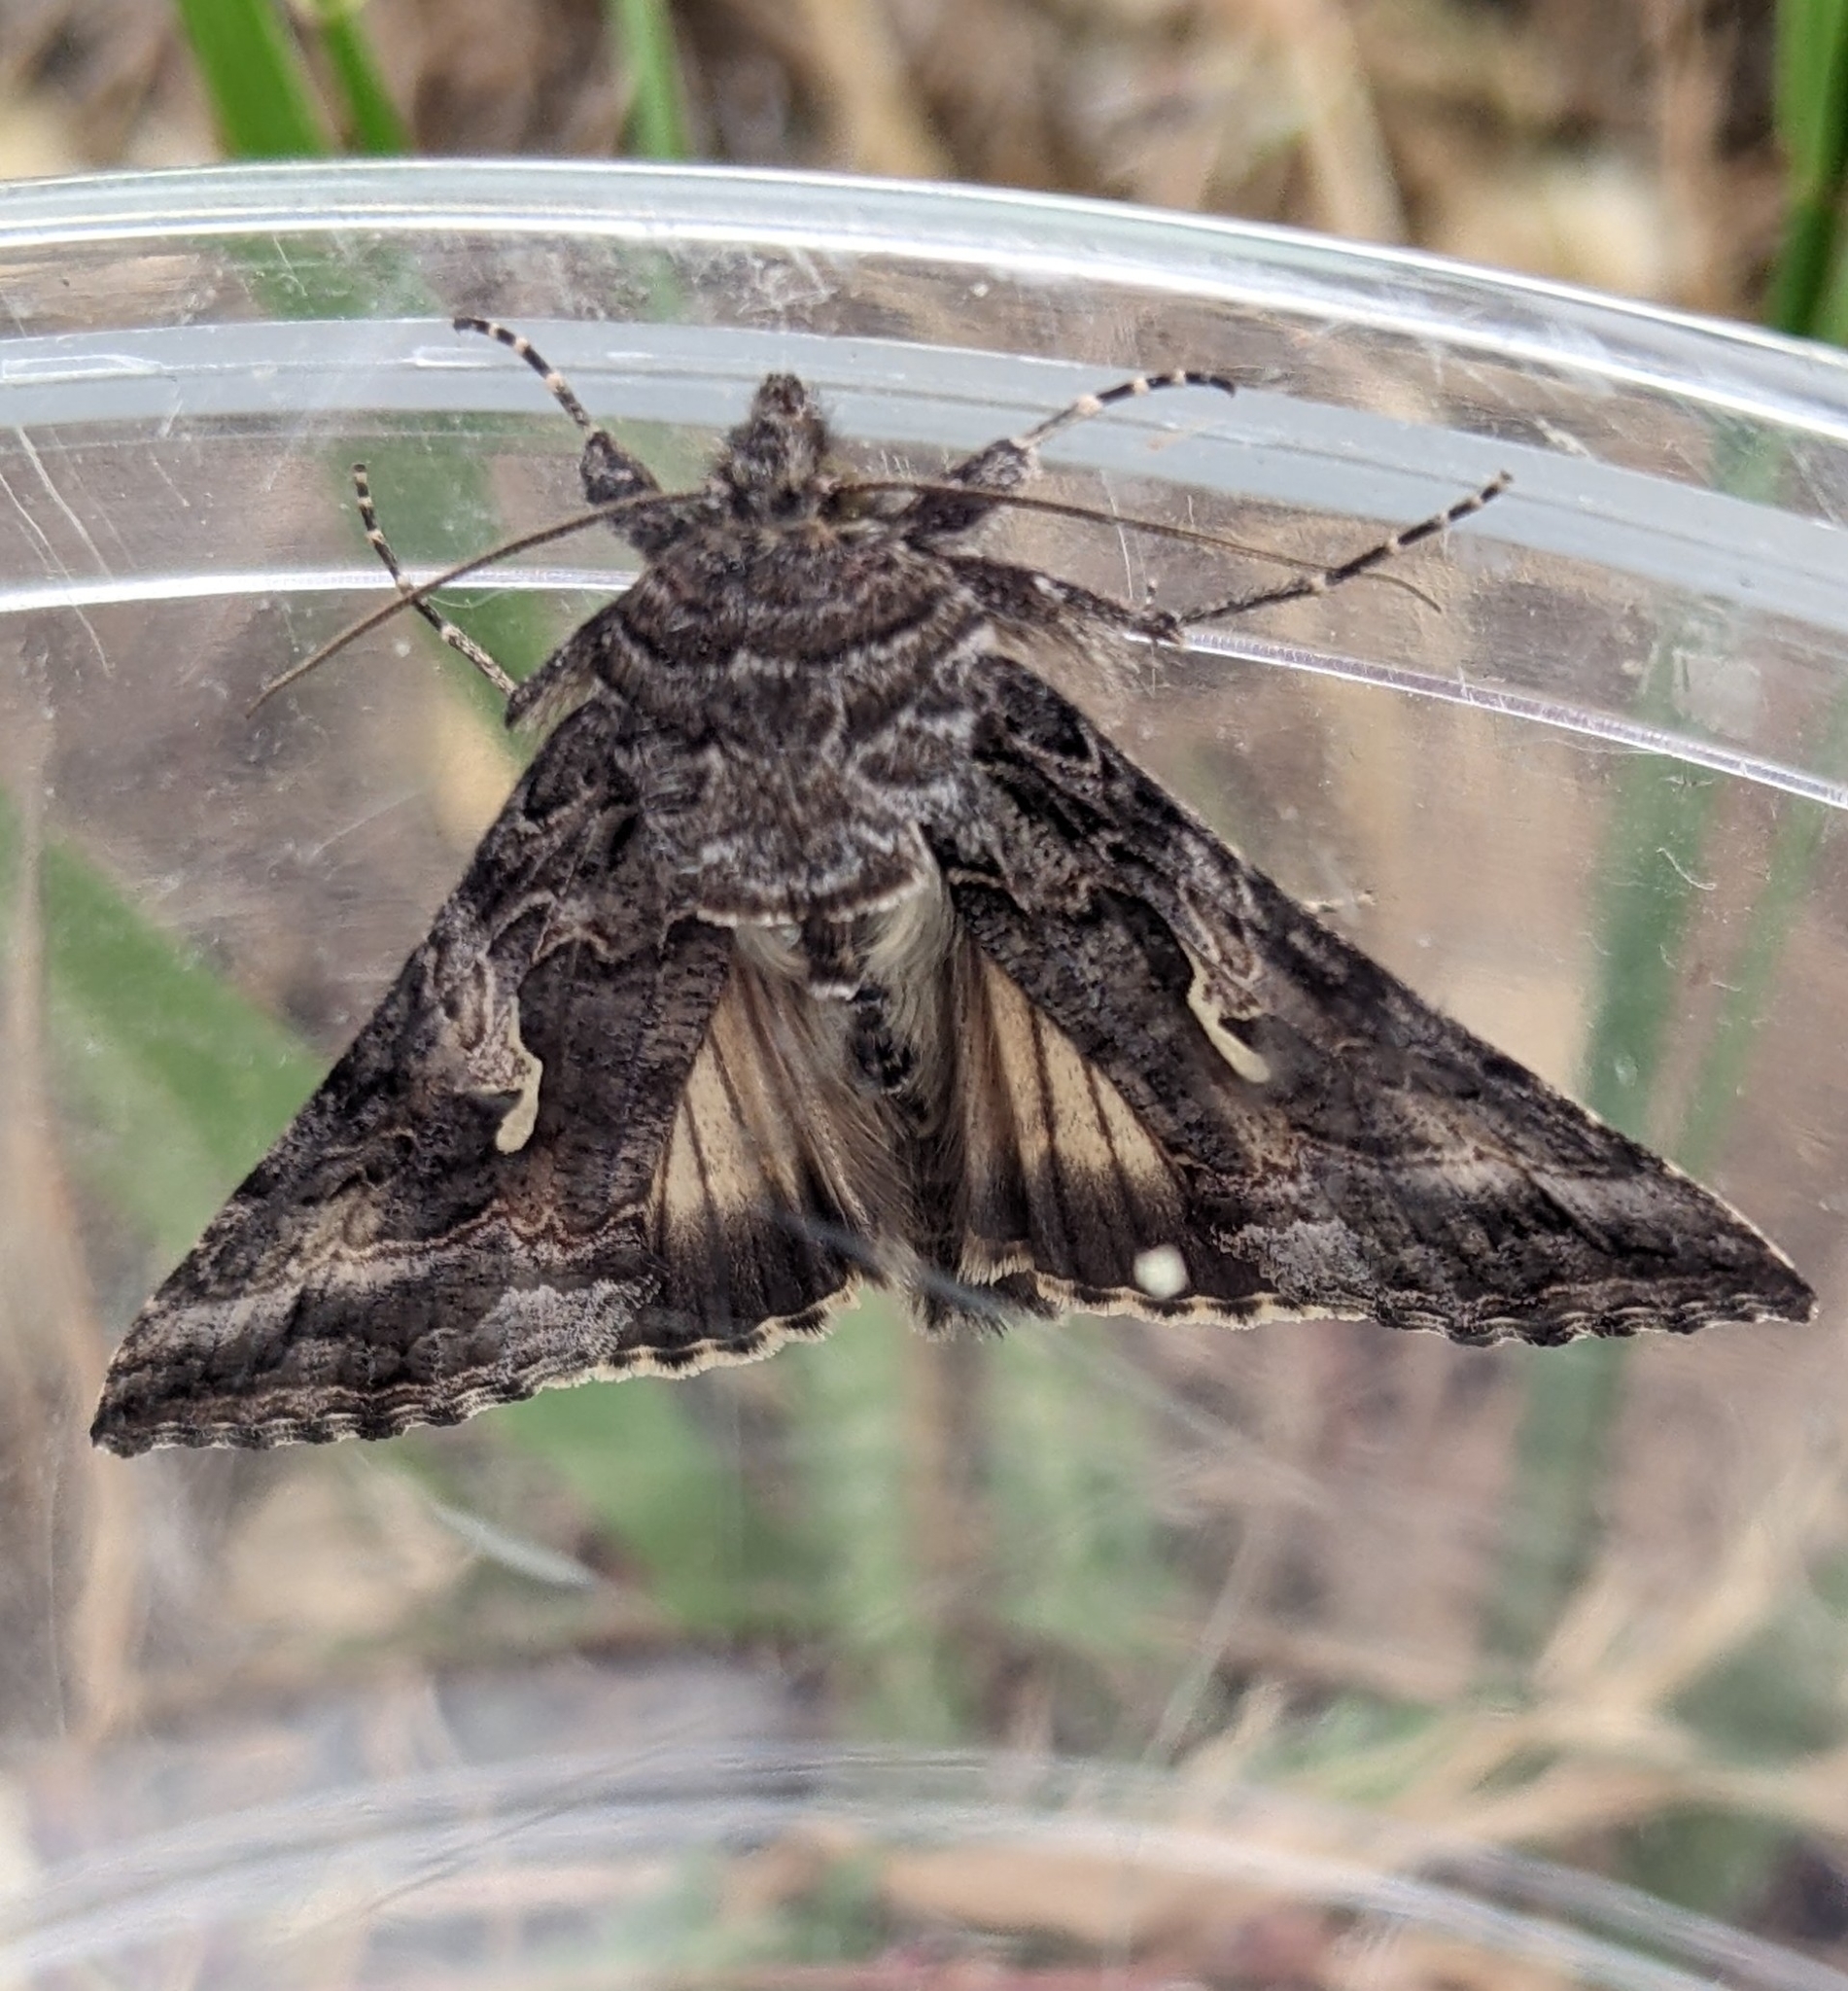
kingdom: Animalia
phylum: Arthropoda
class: Insecta
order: Lepidoptera
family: Noctuidae
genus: Autographa
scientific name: Autographa californica
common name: Alfalfa looper
